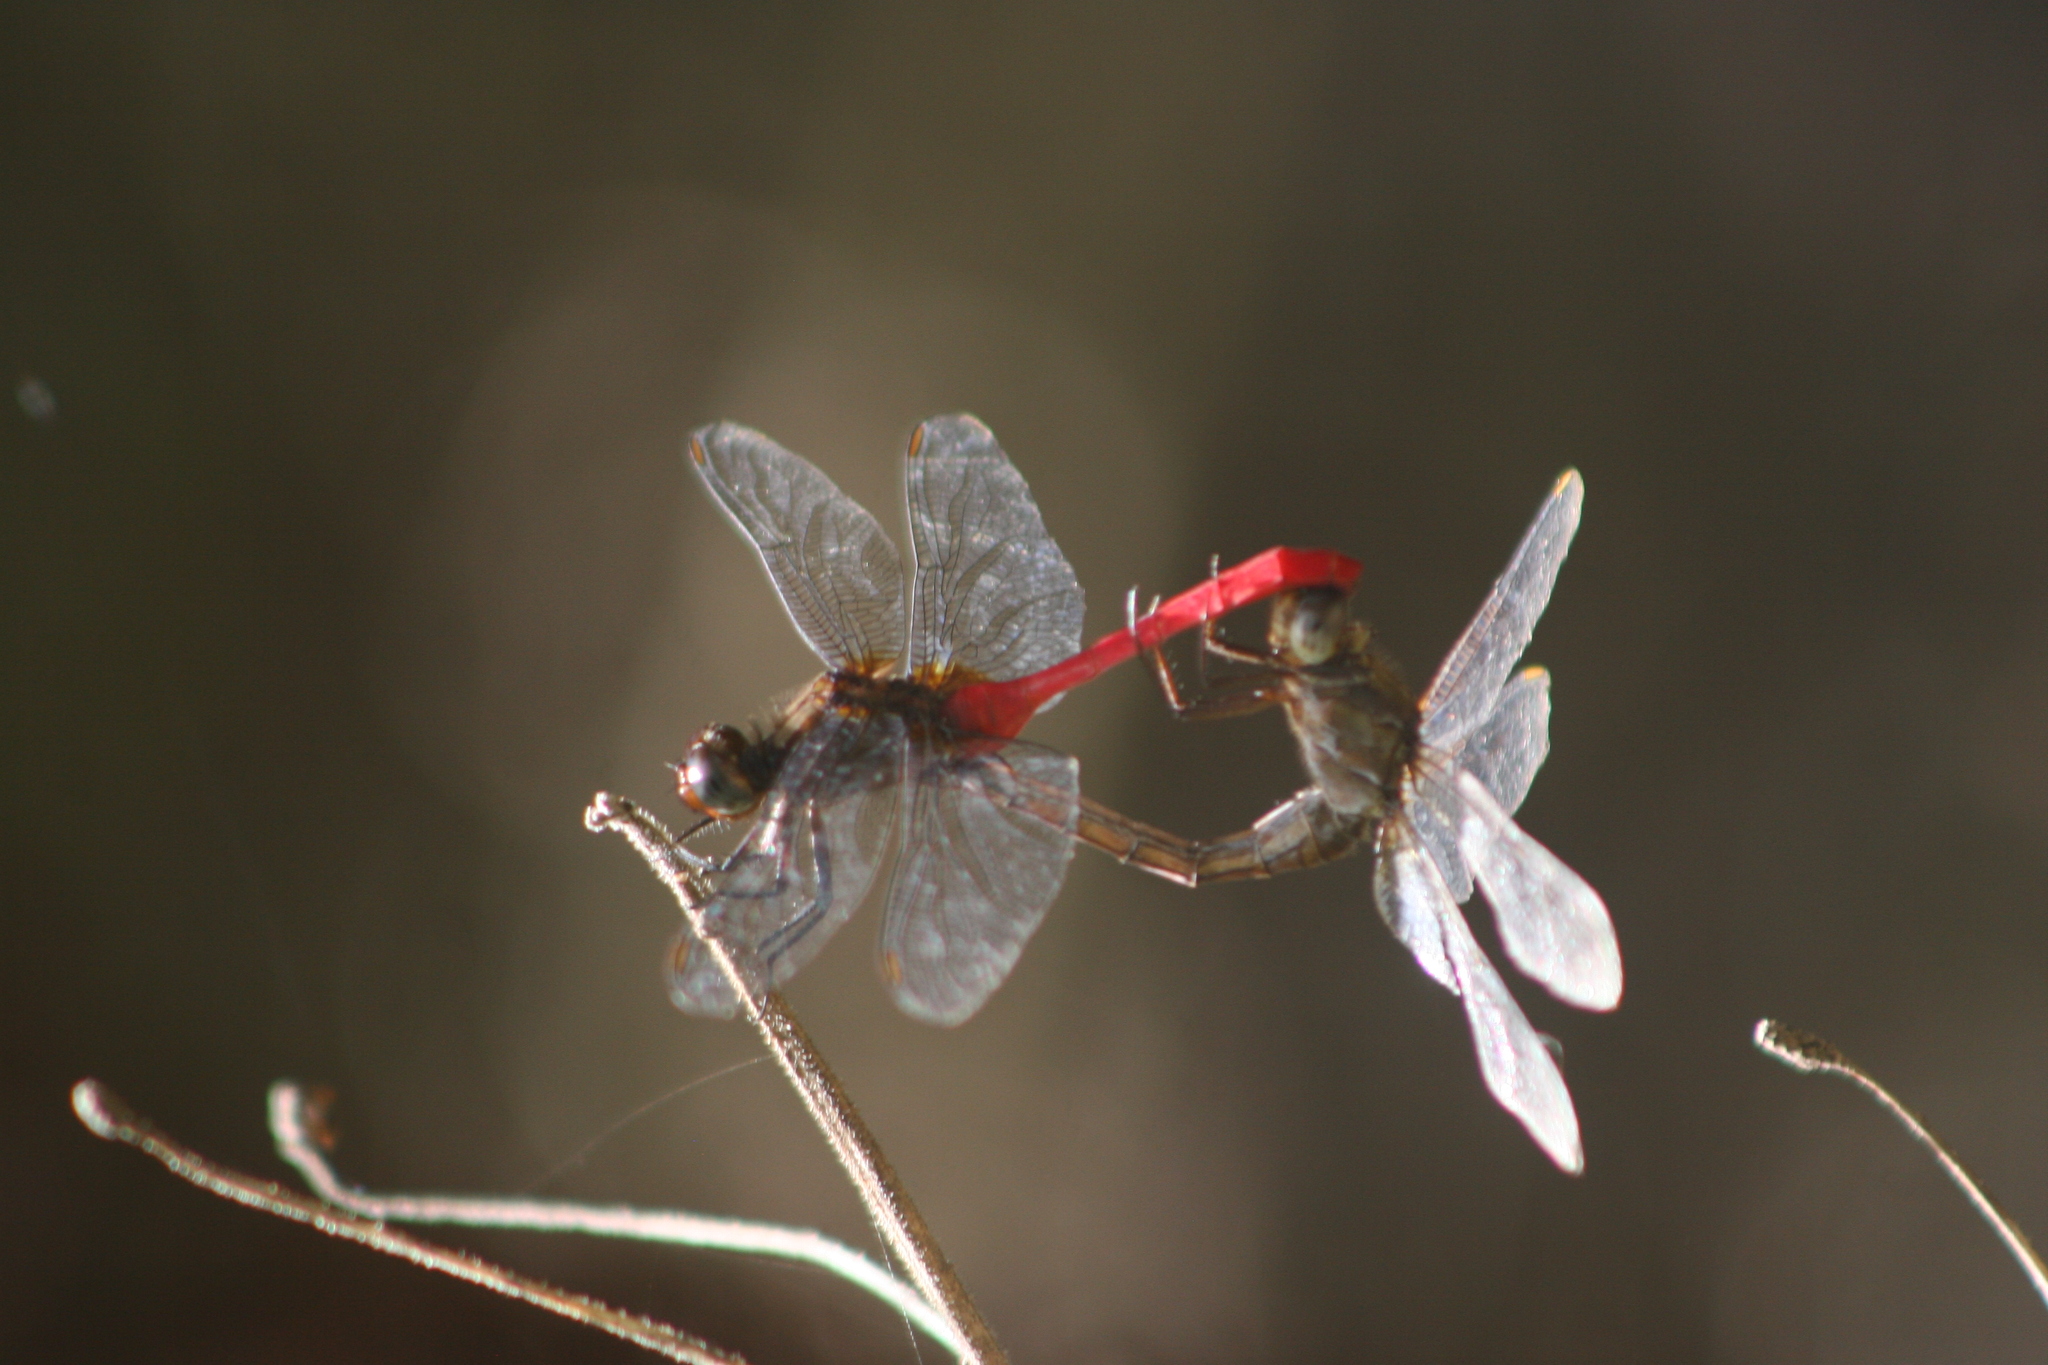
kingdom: Animalia
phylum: Arthropoda
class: Insecta
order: Odonata
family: Libellulidae
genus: Orthetrum
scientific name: Orthetrum villosovittatum
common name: Firery skimmer
